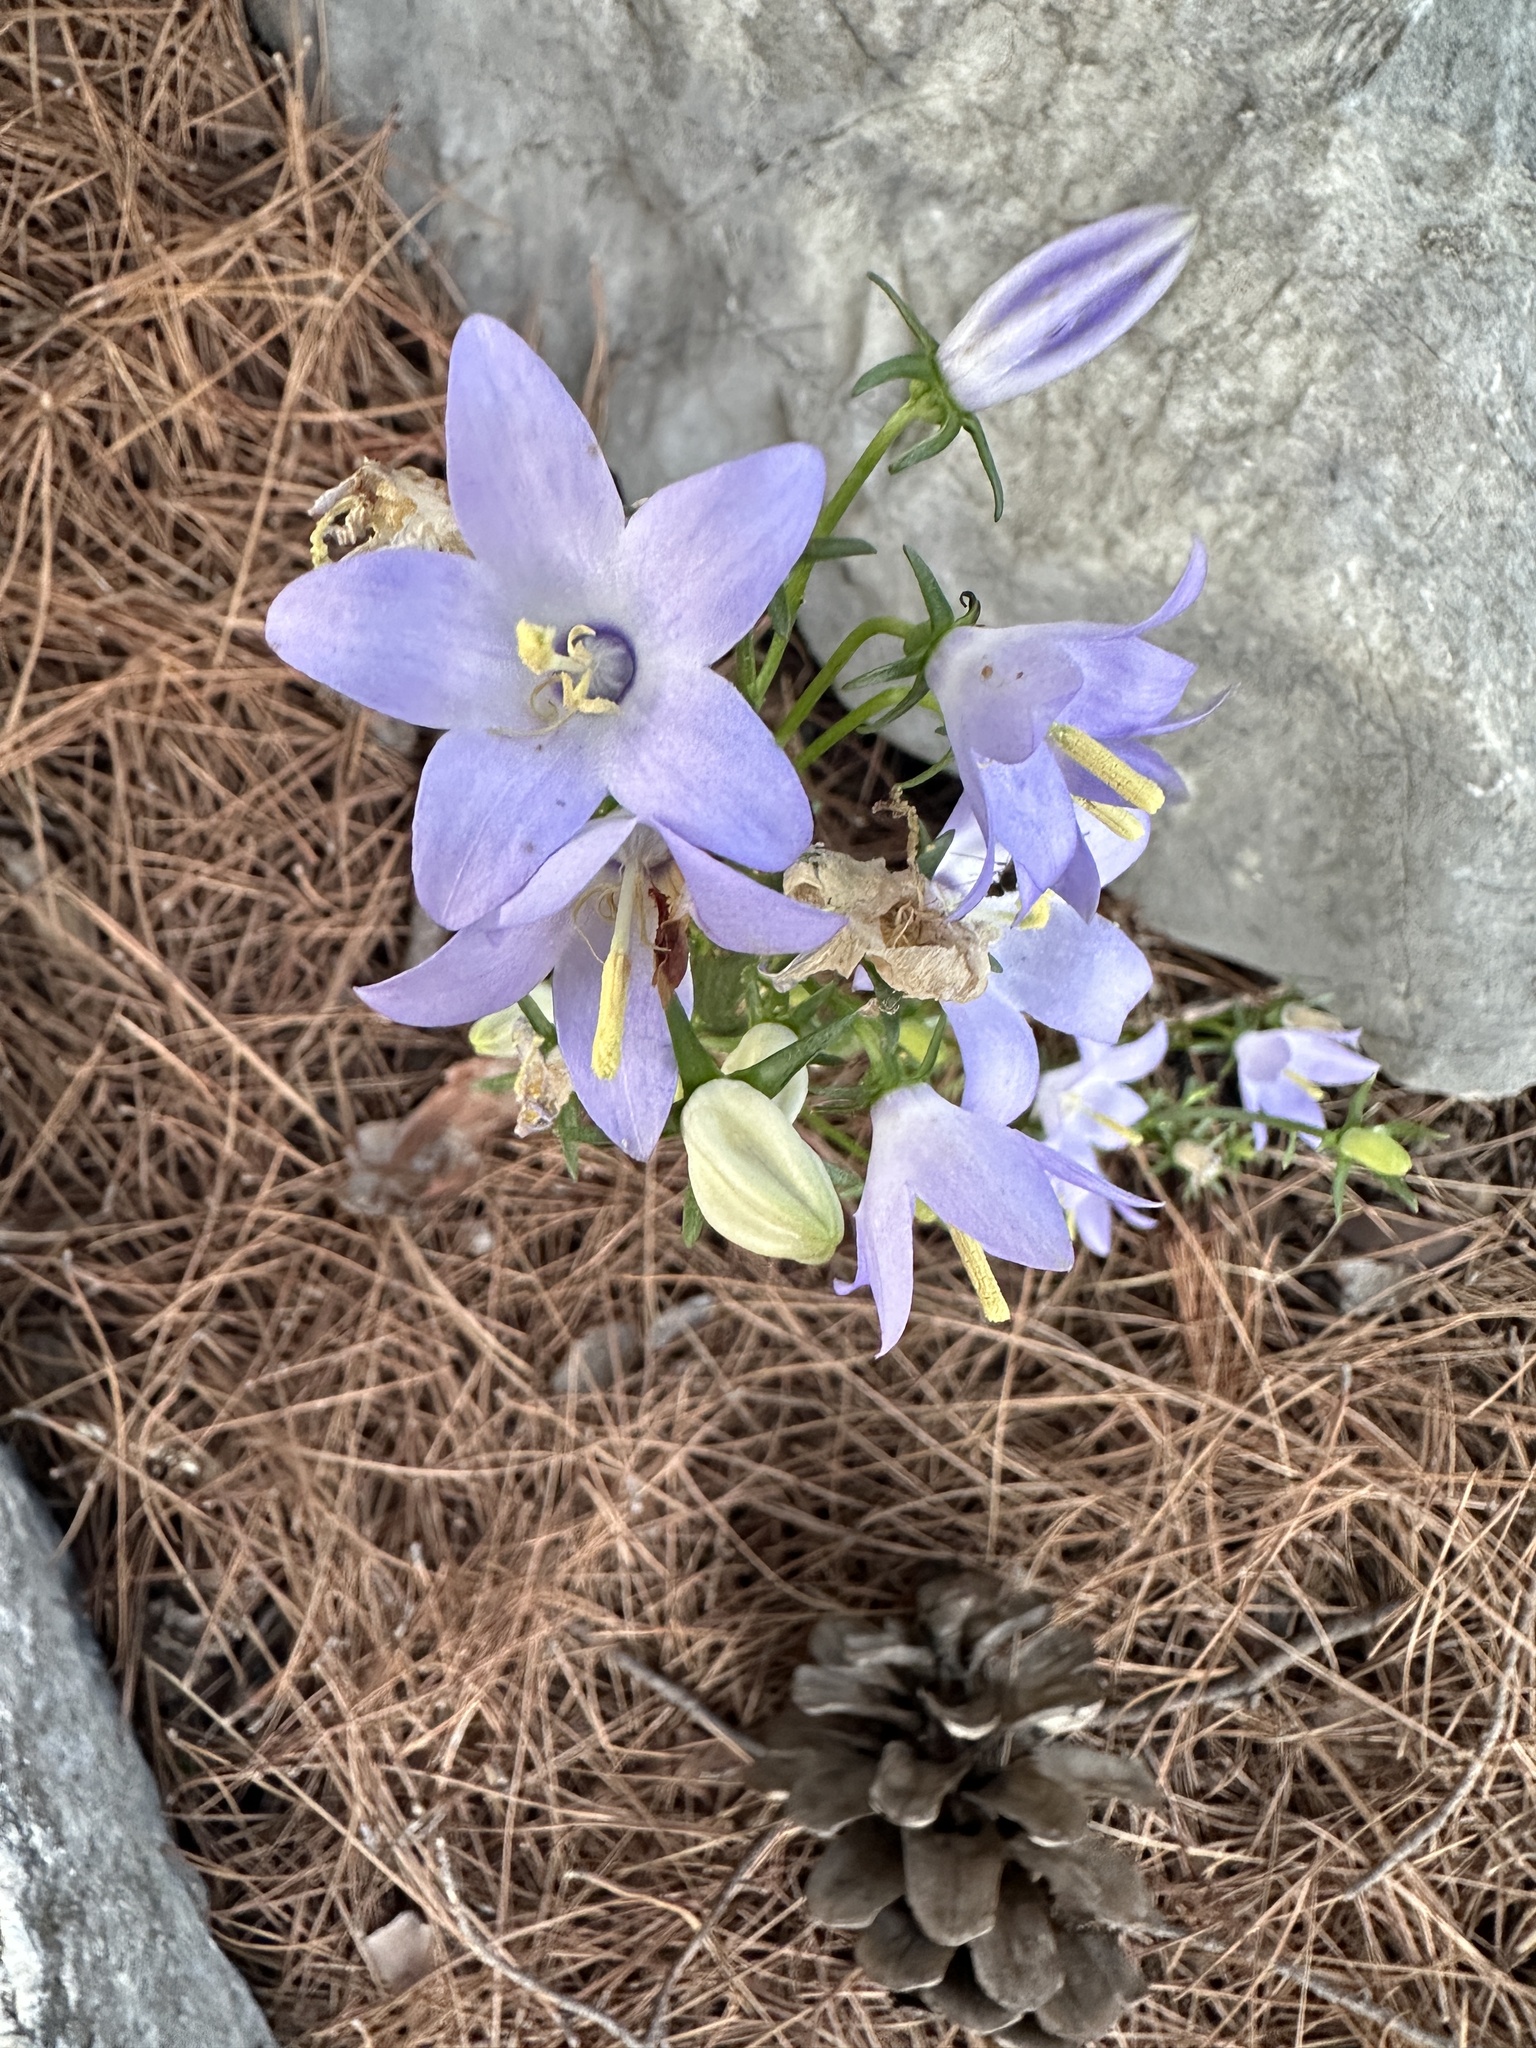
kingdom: Plantae
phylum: Tracheophyta
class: Magnoliopsida
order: Asterales
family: Campanulaceae
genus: Campanula
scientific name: Campanula pyramidalis
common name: Chimney bellflower
